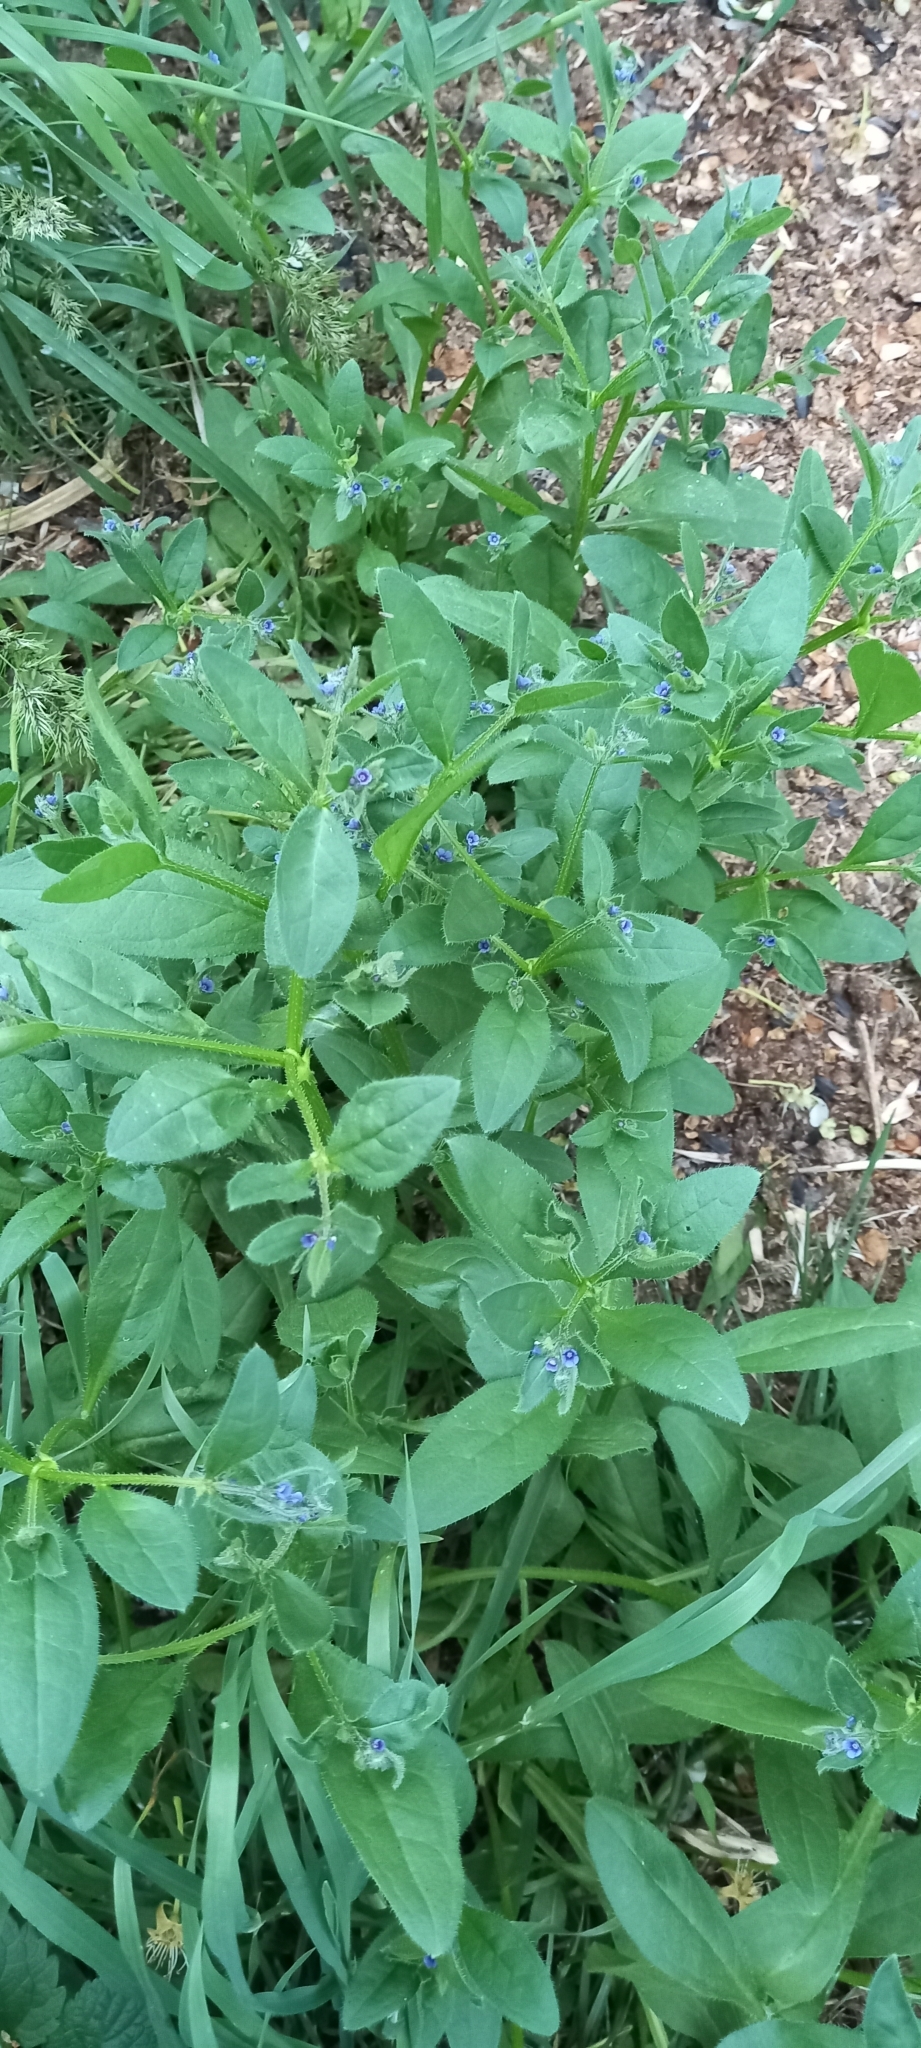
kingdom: Plantae
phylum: Tracheophyta
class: Magnoliopsida
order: Boraginales
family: Boraginaceae
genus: Asperugo
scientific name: Asperugo procumbens
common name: Madwort
